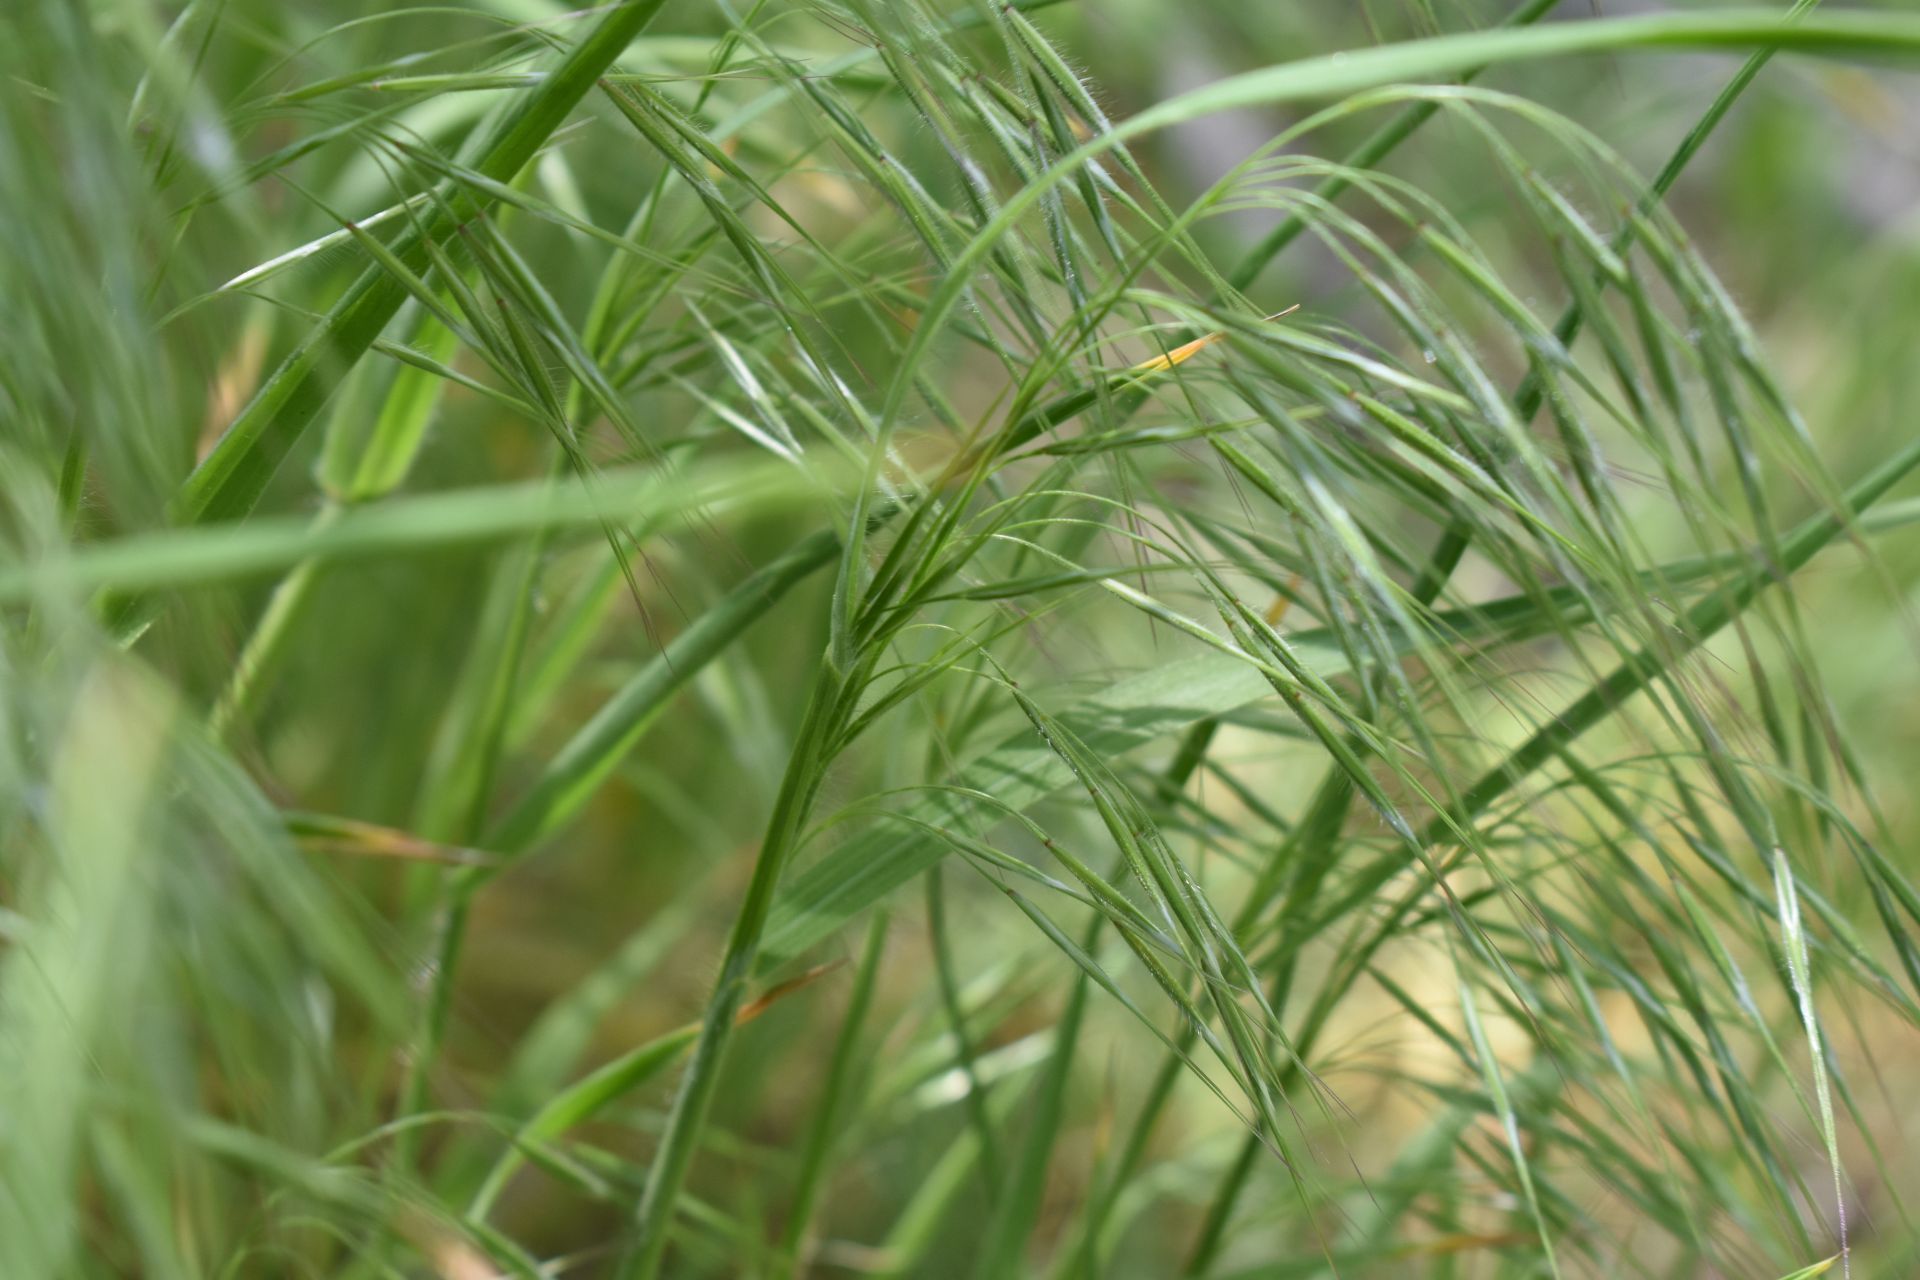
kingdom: Plantae
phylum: Tracheophyta
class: Liliopsida
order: Poales
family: Poaceae
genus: Bromus
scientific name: Bromus tectorum
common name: Cheatgrass
